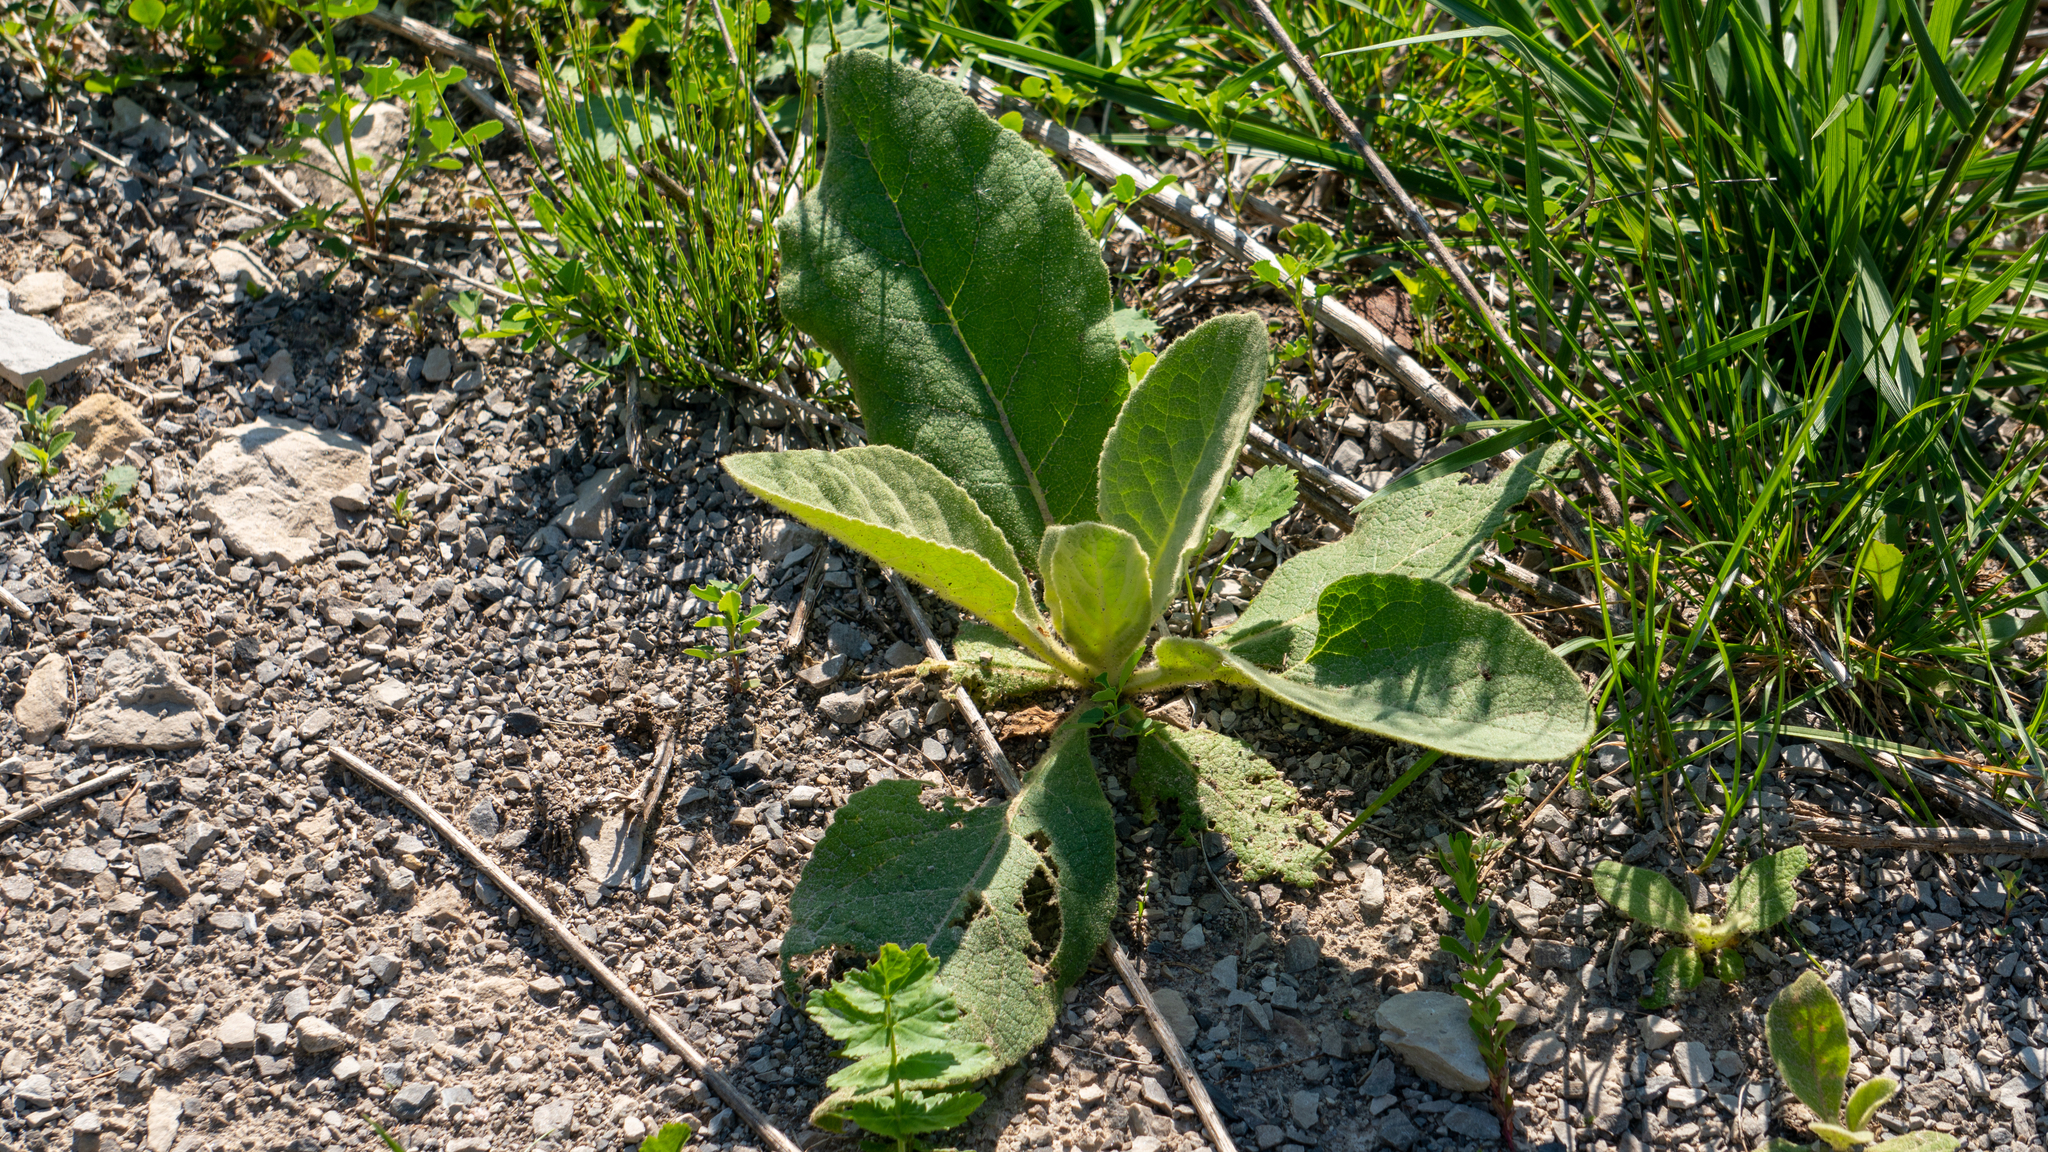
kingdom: Plantae
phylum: Tracheophyta
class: Magnoliopsida
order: Lamiales
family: Scrophulariaceae
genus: Verbascum
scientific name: Verbascum thapsus
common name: Common mullein
